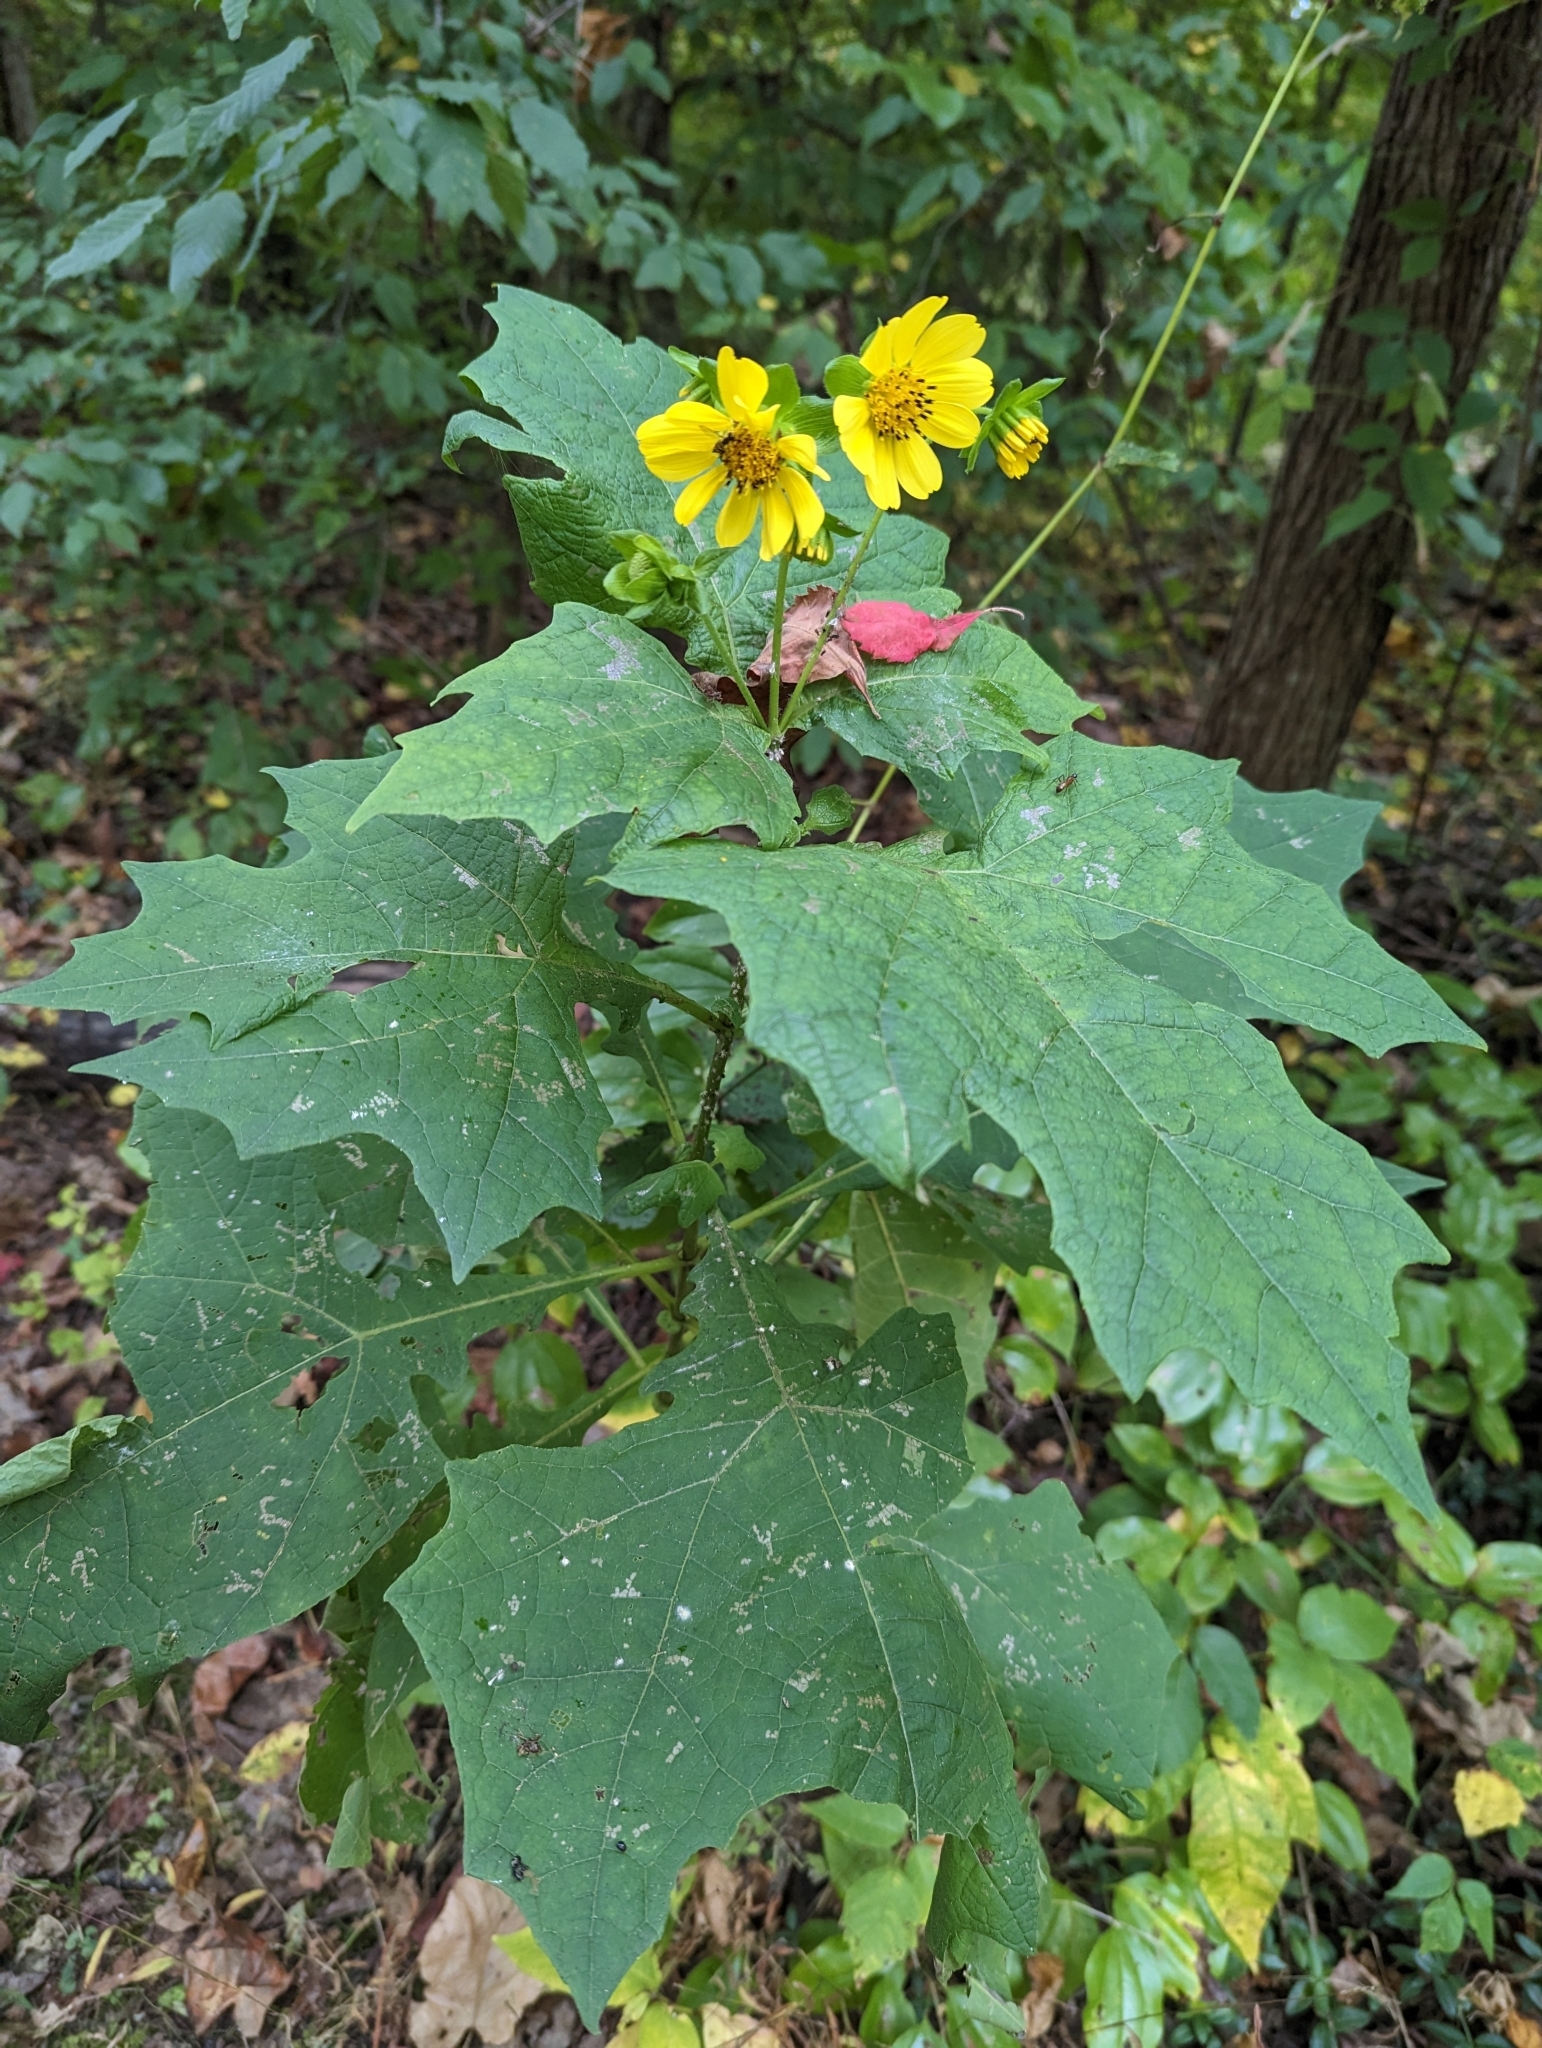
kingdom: Plantae
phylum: Tracheophyta
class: Magnoliopsida
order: Asterales
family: Asteraceae
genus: Smallanthus
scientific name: Smallanthus uvedalia
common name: Bear's-foot
